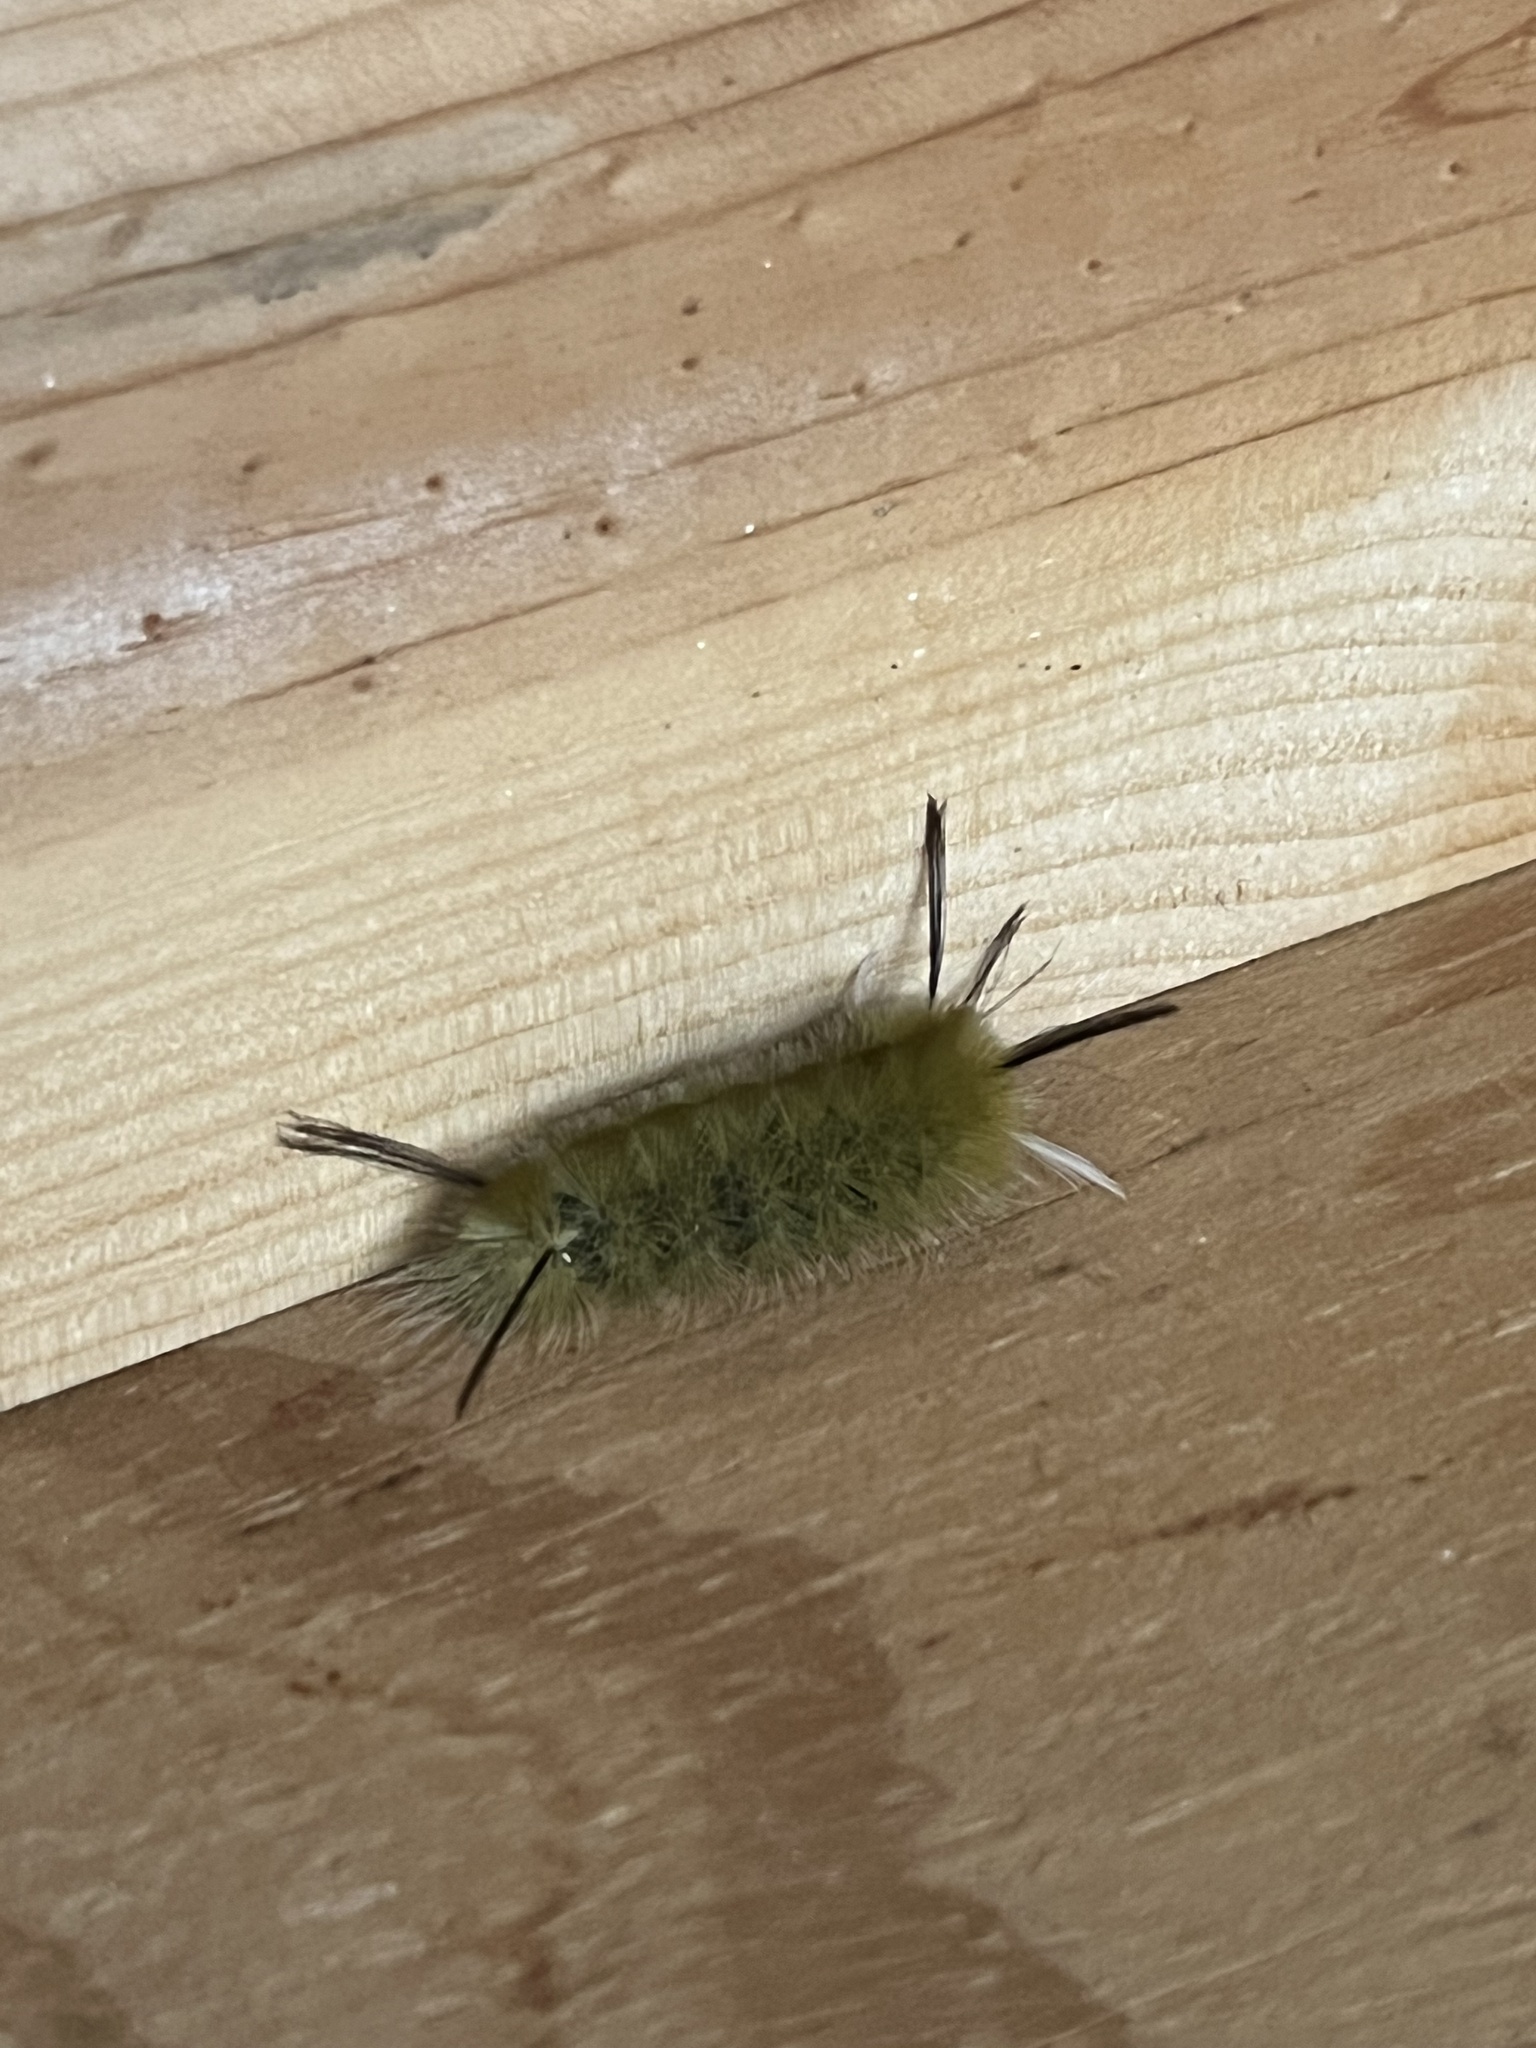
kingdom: Animalia
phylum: Arthropoda
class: Insecta
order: Lepidoptera
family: Erebidae
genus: Halysidota
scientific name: Halysidota tessellaris
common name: Banded tussock moth
